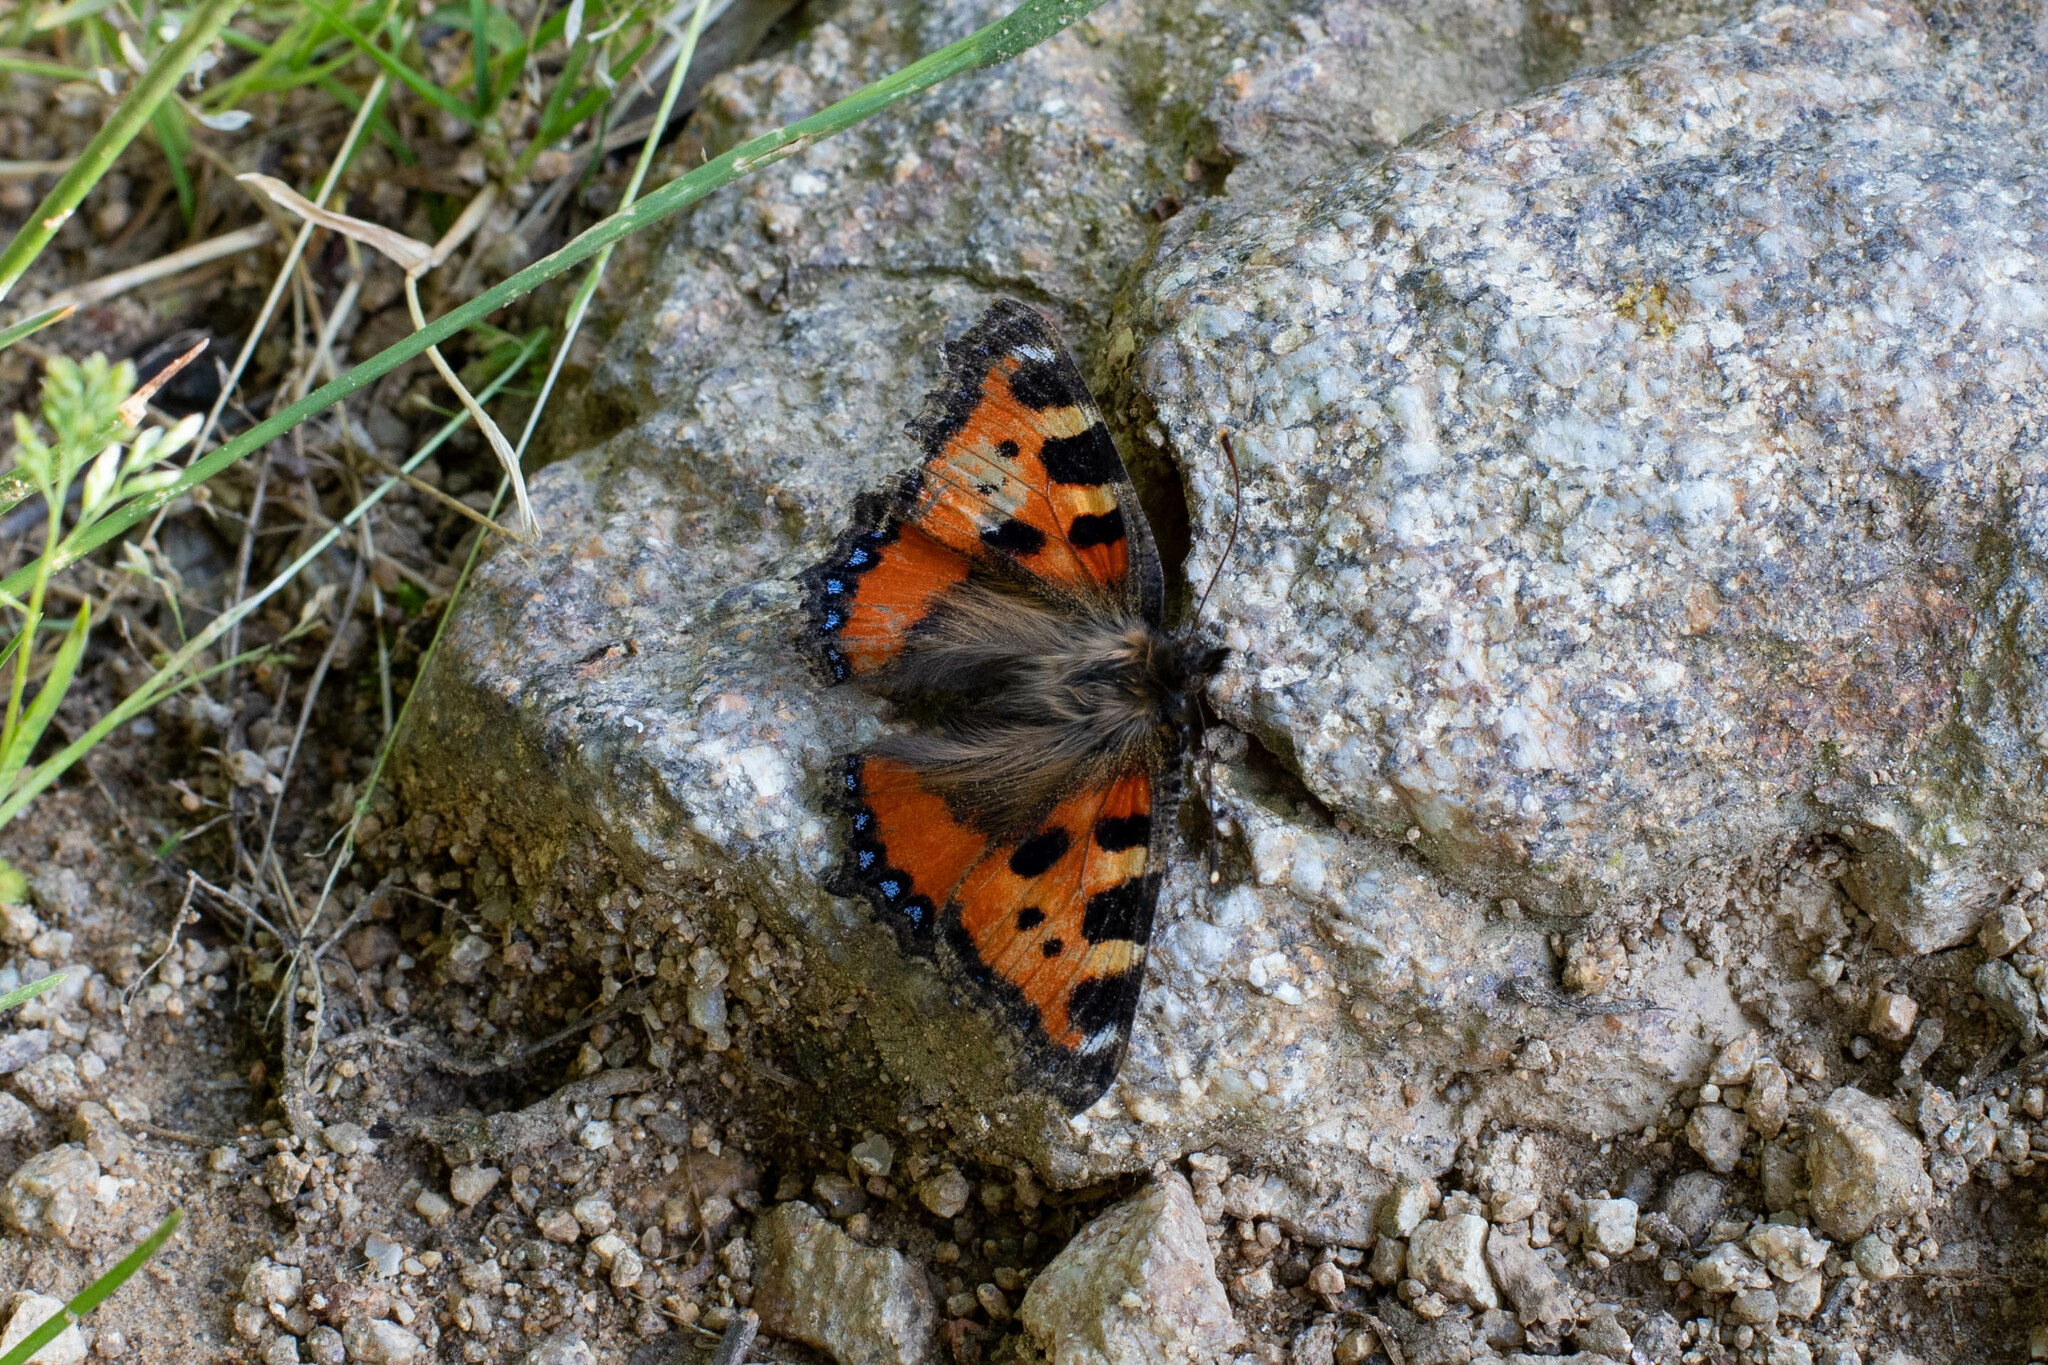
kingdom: Animalia
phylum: Arthropoda
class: Insecta
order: Lepidoptera
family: Nymphalidae
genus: Aglais
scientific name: Aglais urticae
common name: Small tortoiseshell
